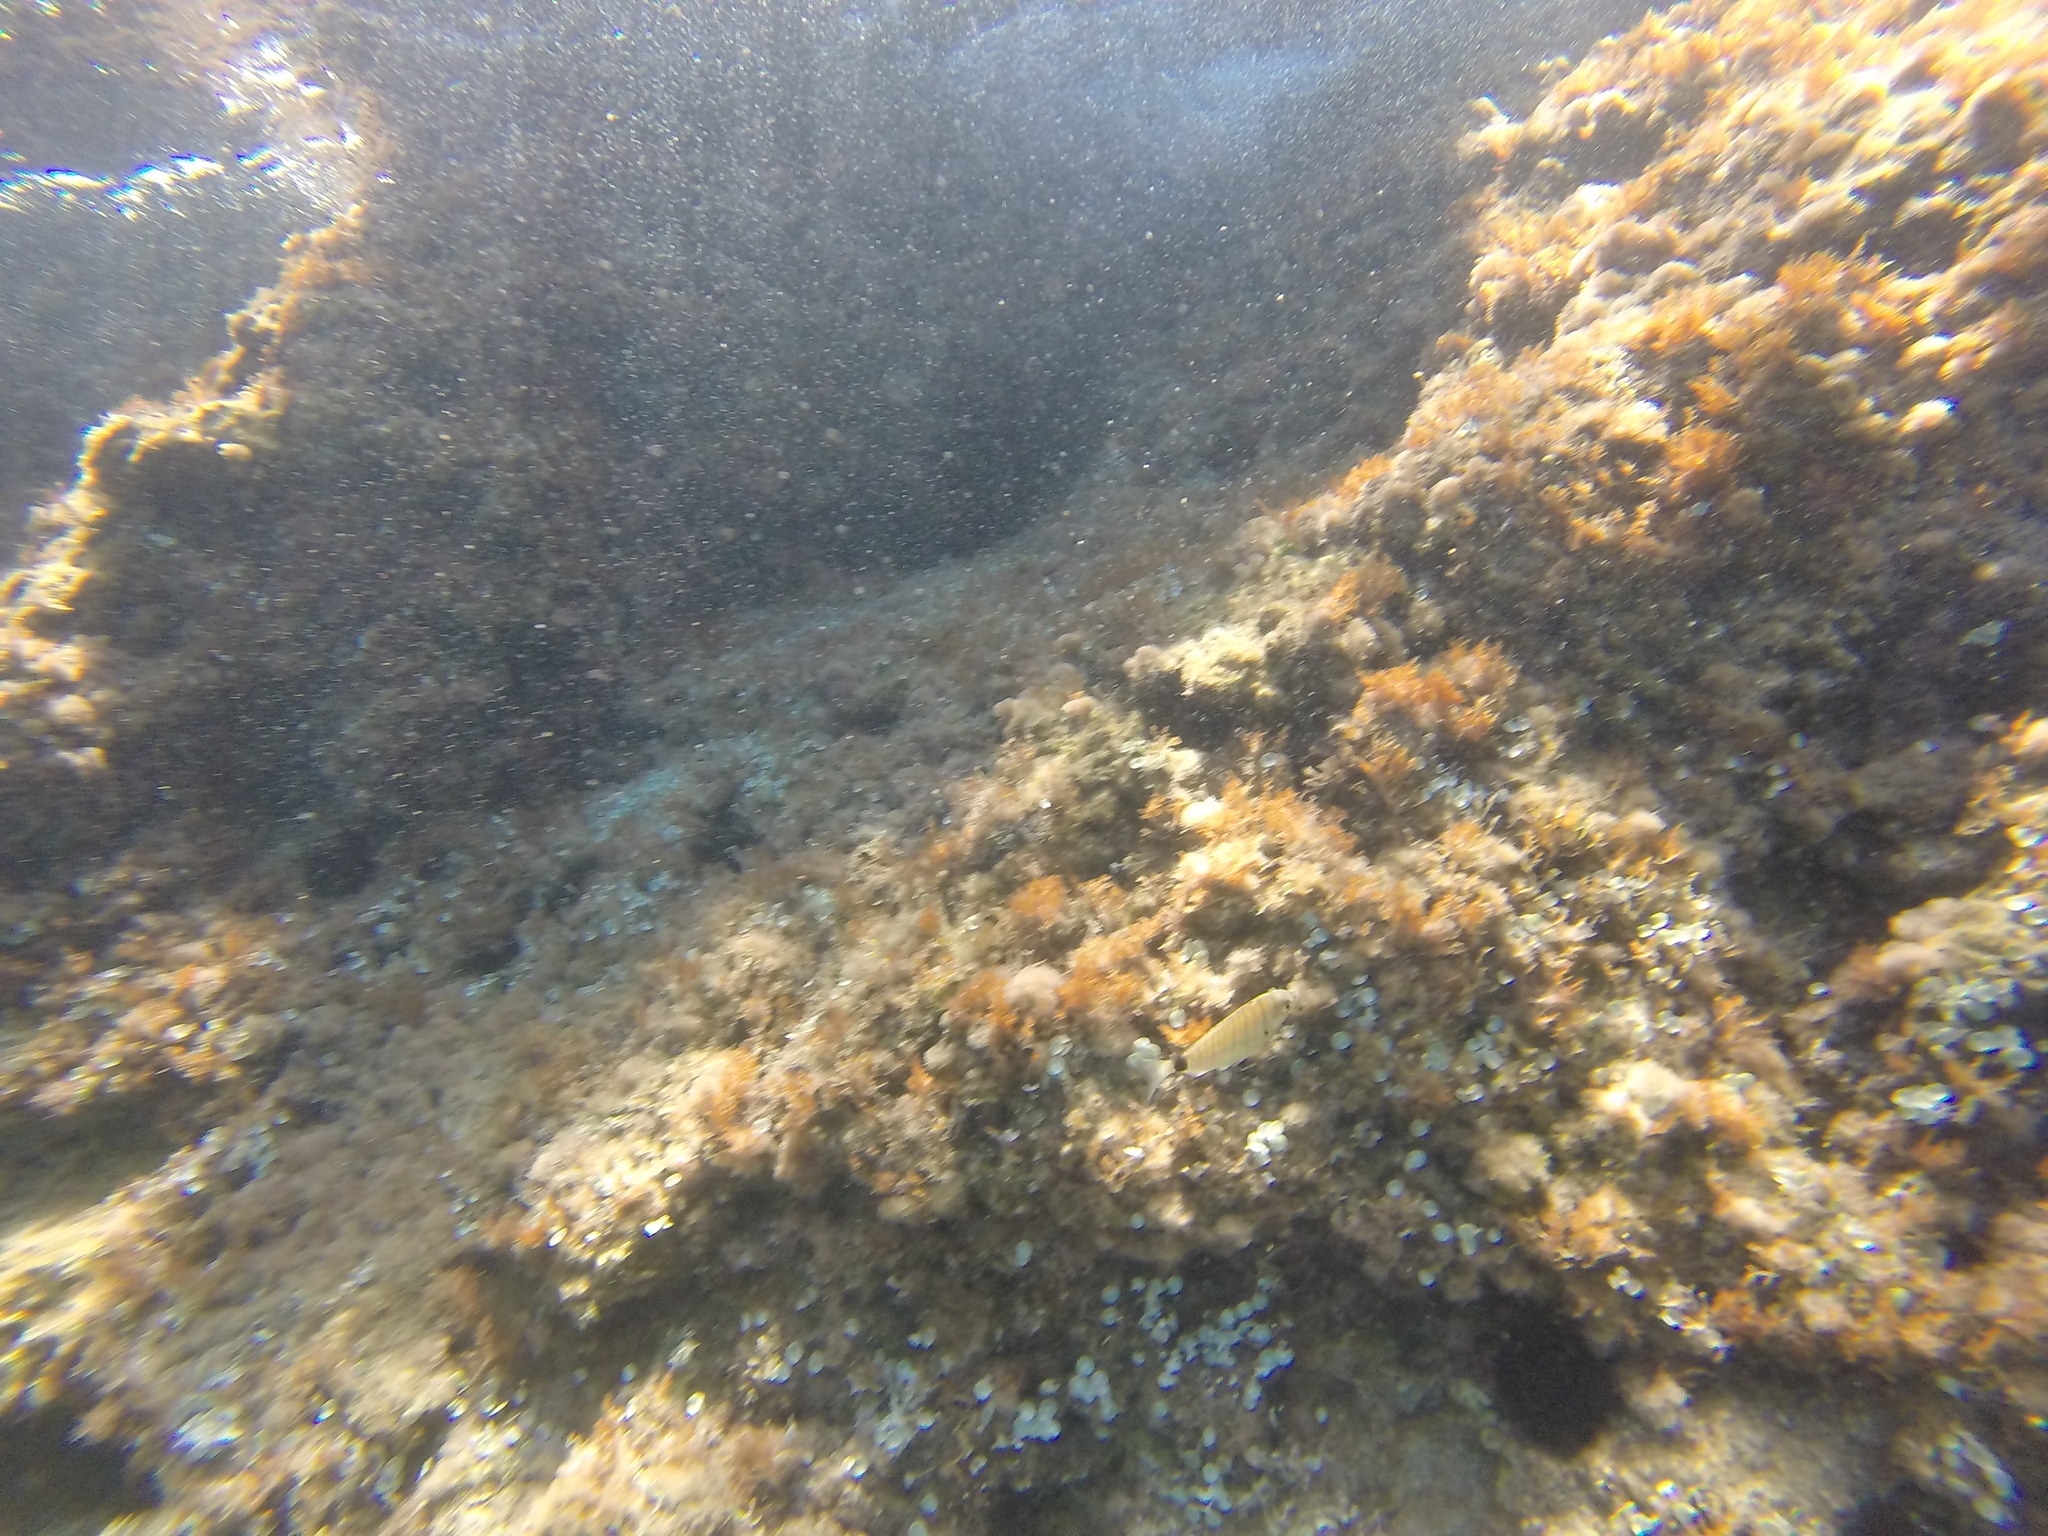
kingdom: Animalia
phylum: Chordata
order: Perciformes
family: Sparidae
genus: Diplodus
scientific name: Diplodus sargus
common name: White seabream
